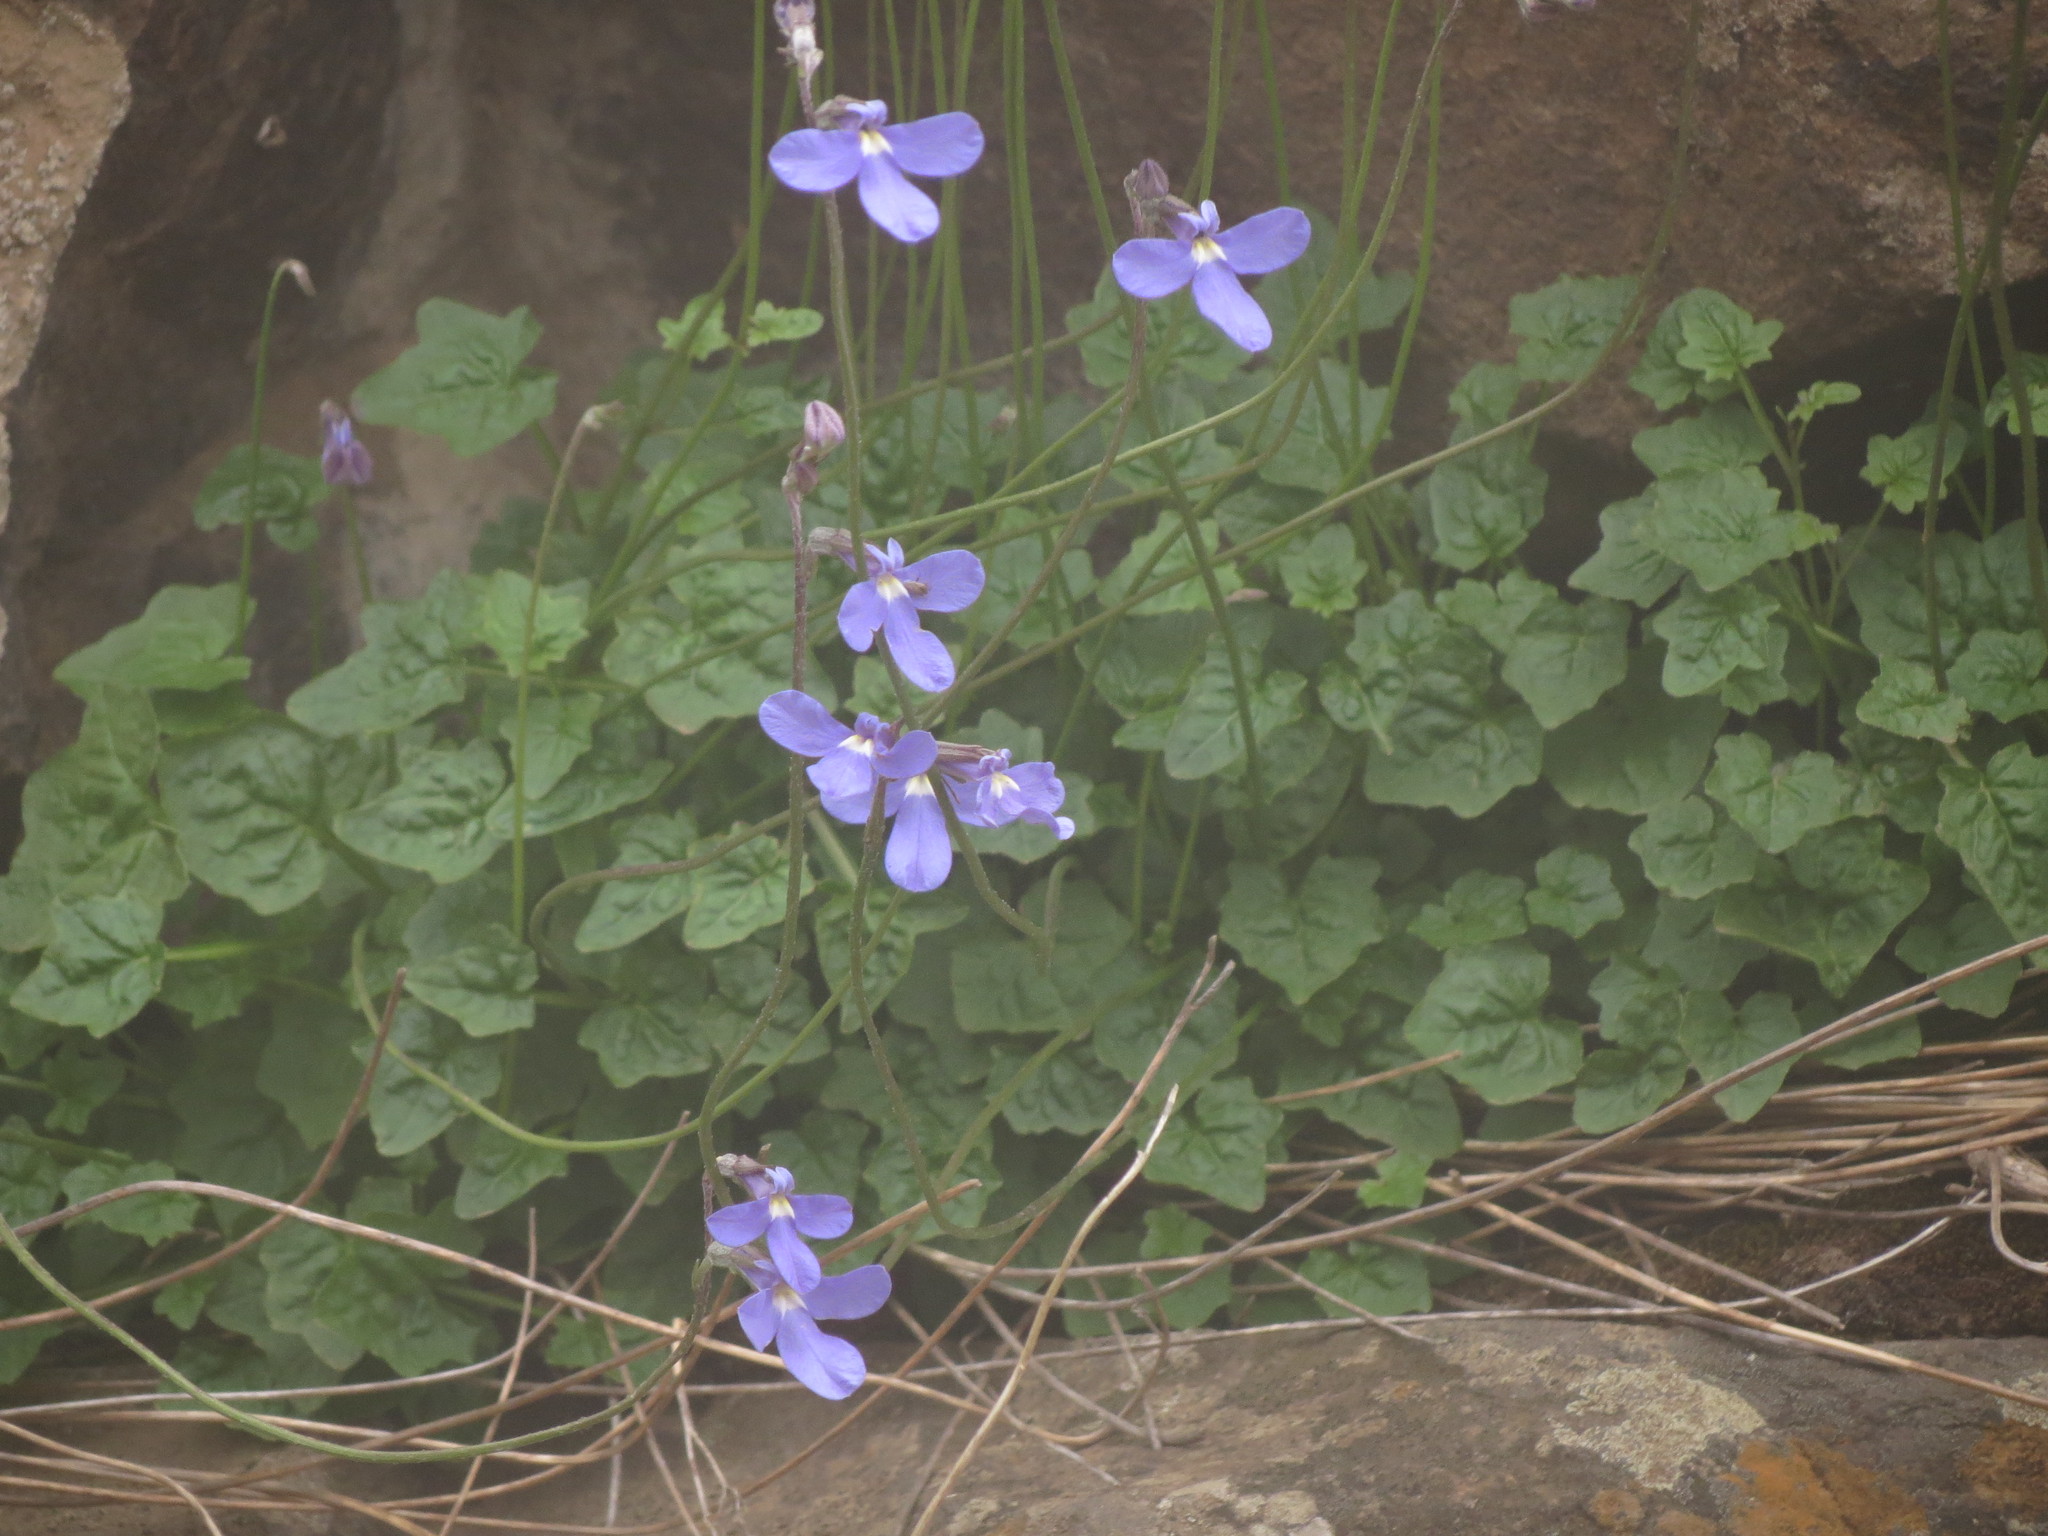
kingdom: Plantae
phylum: Tracheophyta
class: Magnoliopsida
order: Asterales
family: Campanulaceae
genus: Lobelia
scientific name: Lobelia preslii
